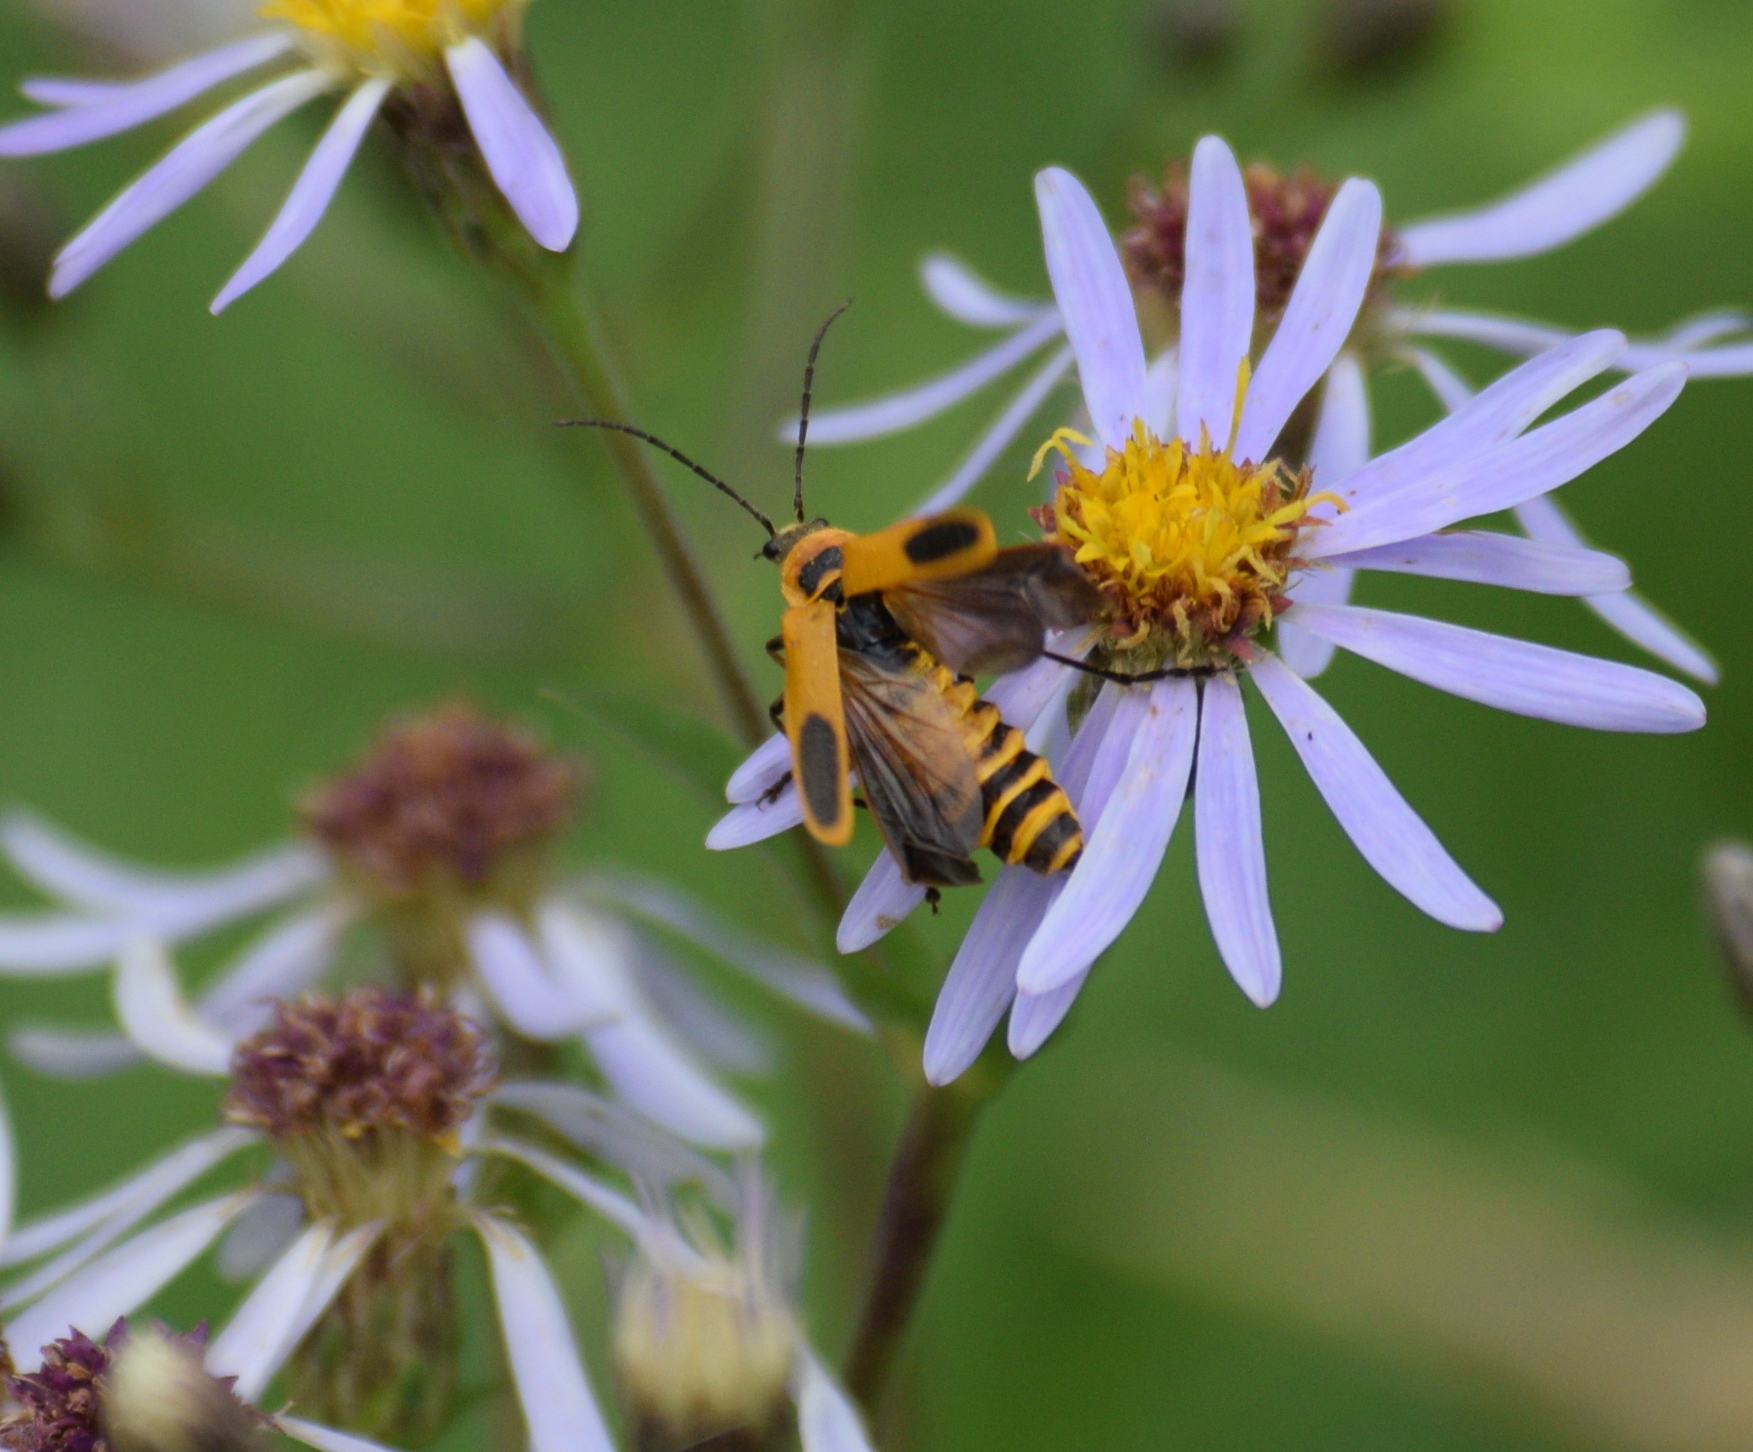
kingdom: Animalia
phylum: Arthropoda
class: Insecta
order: Coleoptera
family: Cantharidae
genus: Chauliognathus
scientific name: Chauliognathus pensylvanicus
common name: Goldenrod soldier beetle
